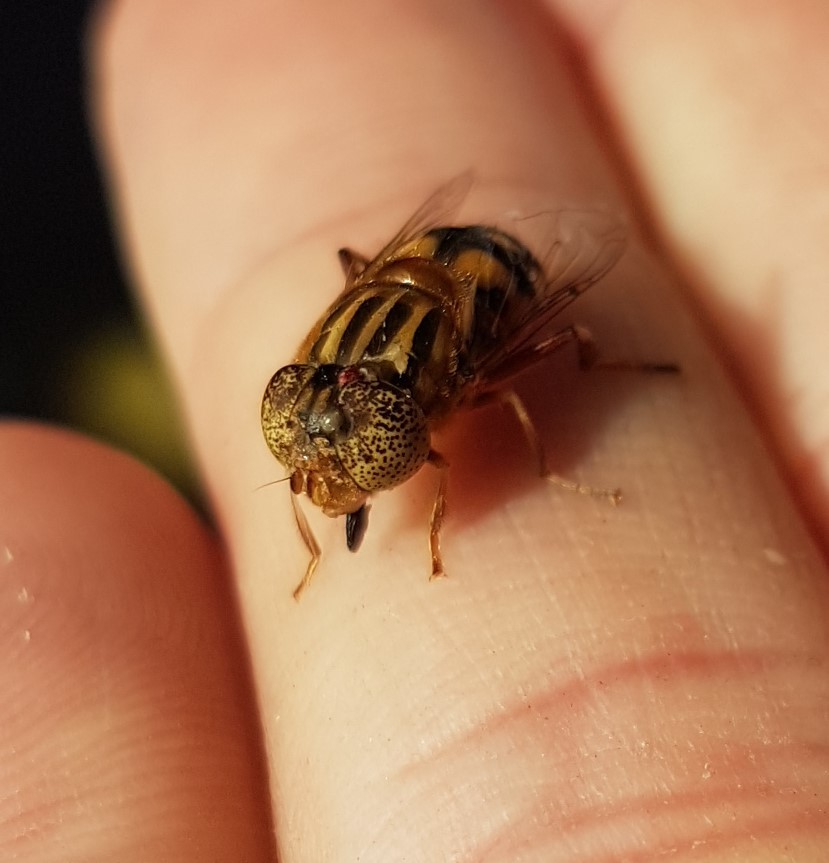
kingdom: Animalia
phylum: Arthropoda
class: Insecta
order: Diptera
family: Syrphidae
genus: Eristalinus
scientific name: Eristalinus punctulatus
